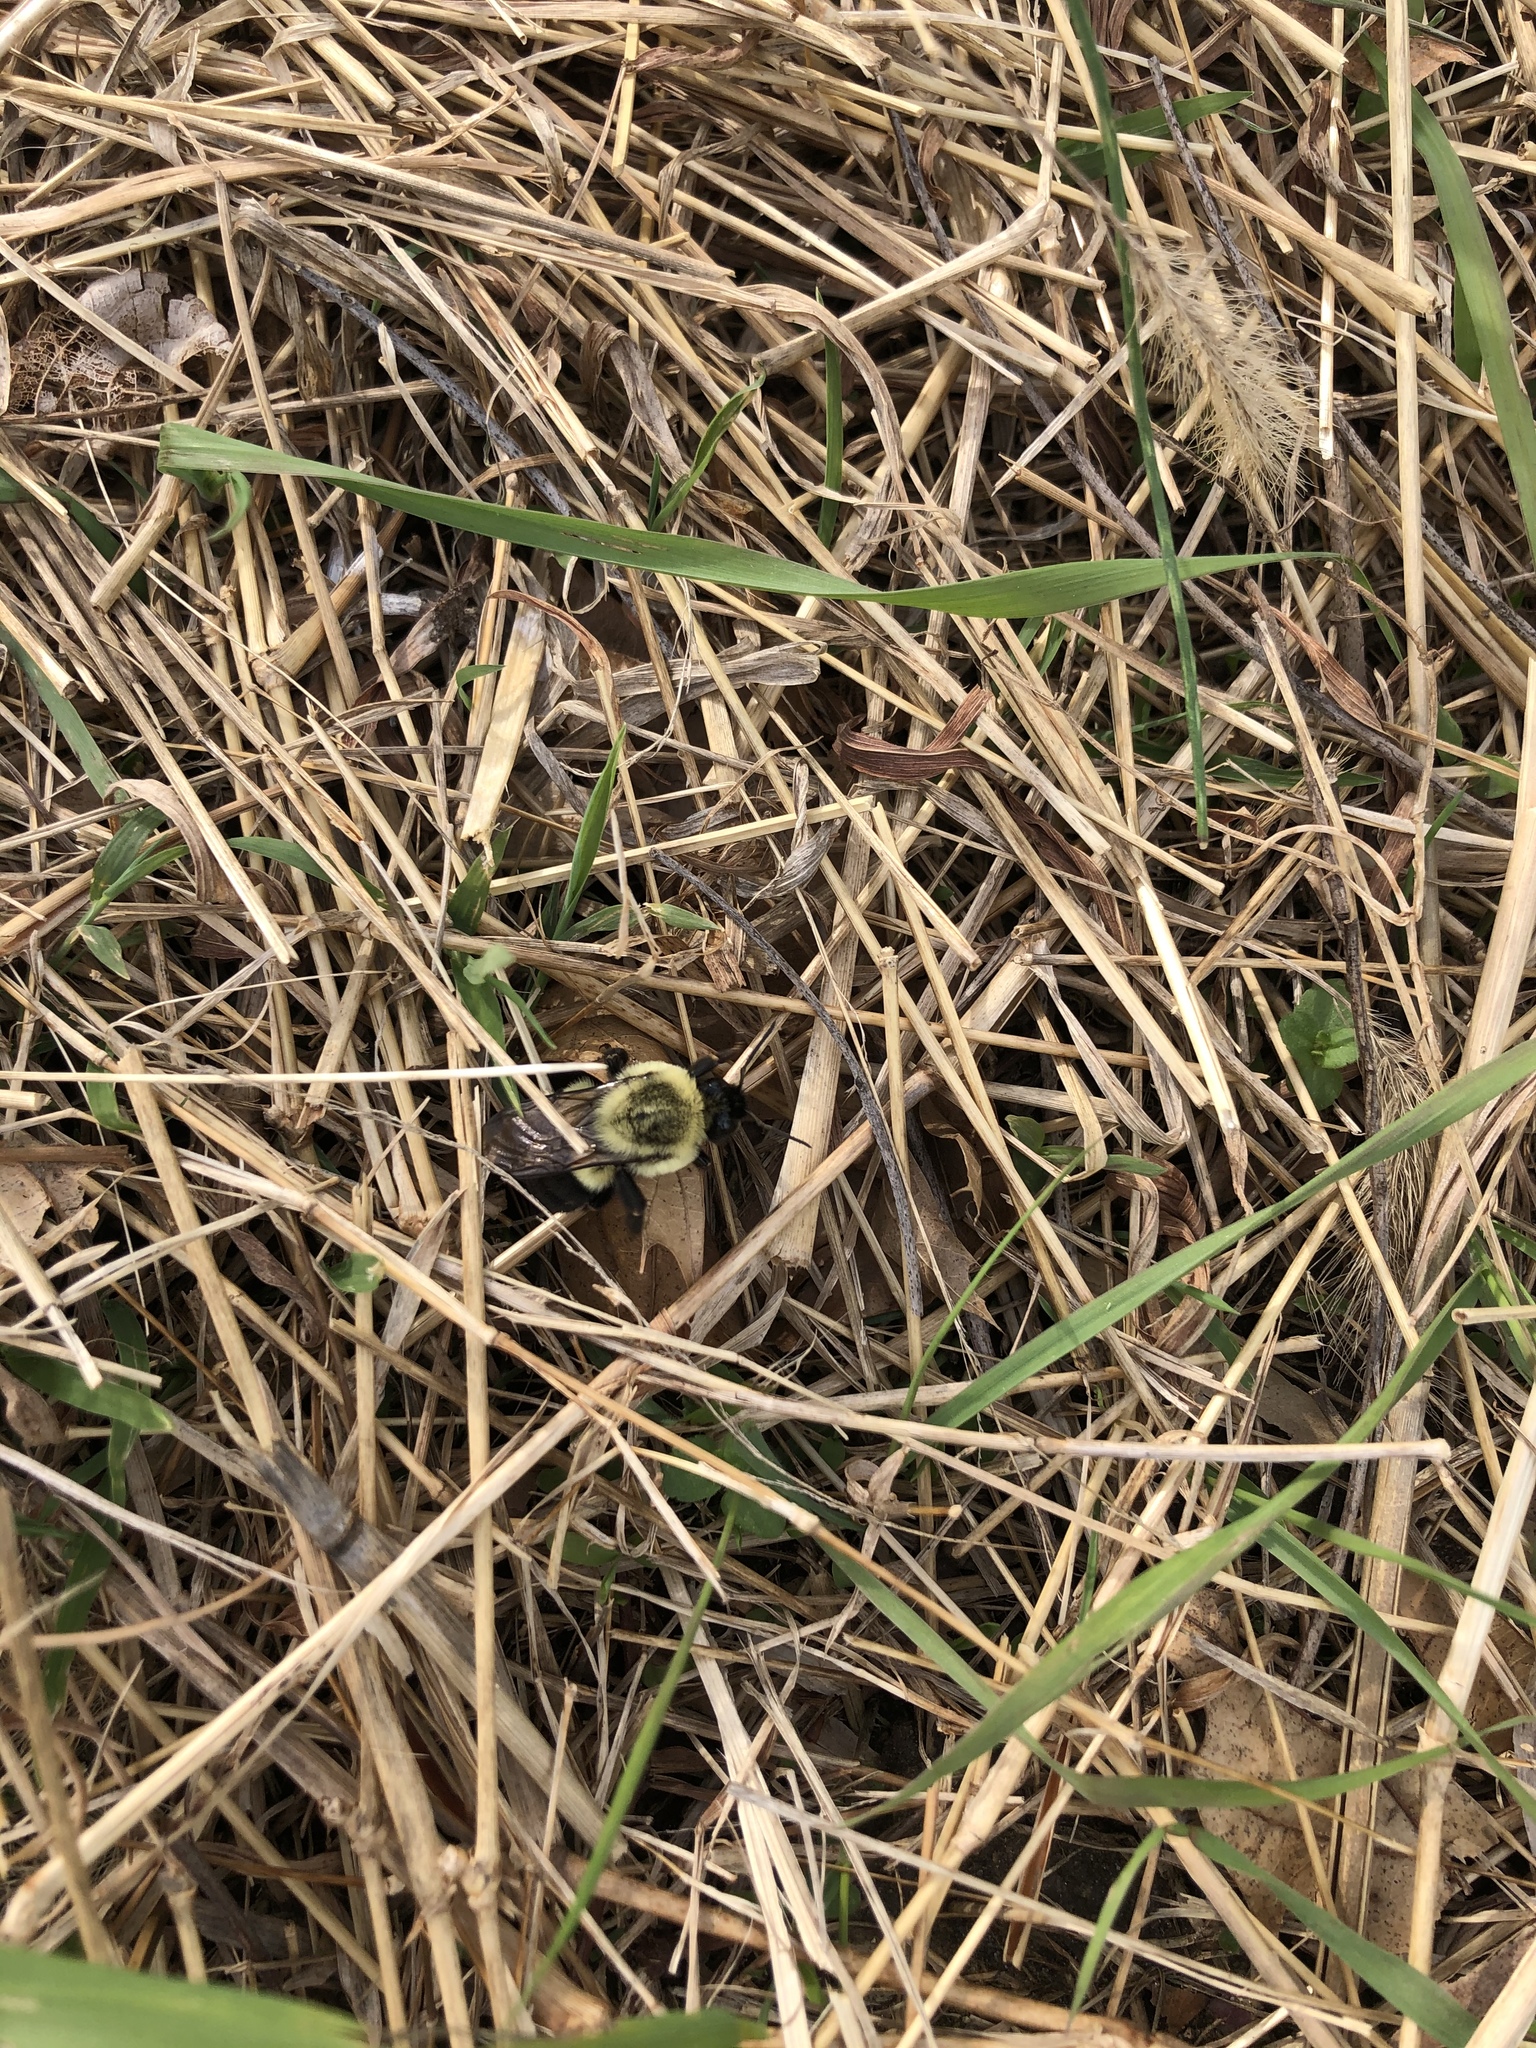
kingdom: Animalia
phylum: Arthropoda
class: Insecta
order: Hymenoptera
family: Apidae
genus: Bombus
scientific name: Bombus impatiens
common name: Common eastern bumble bee
